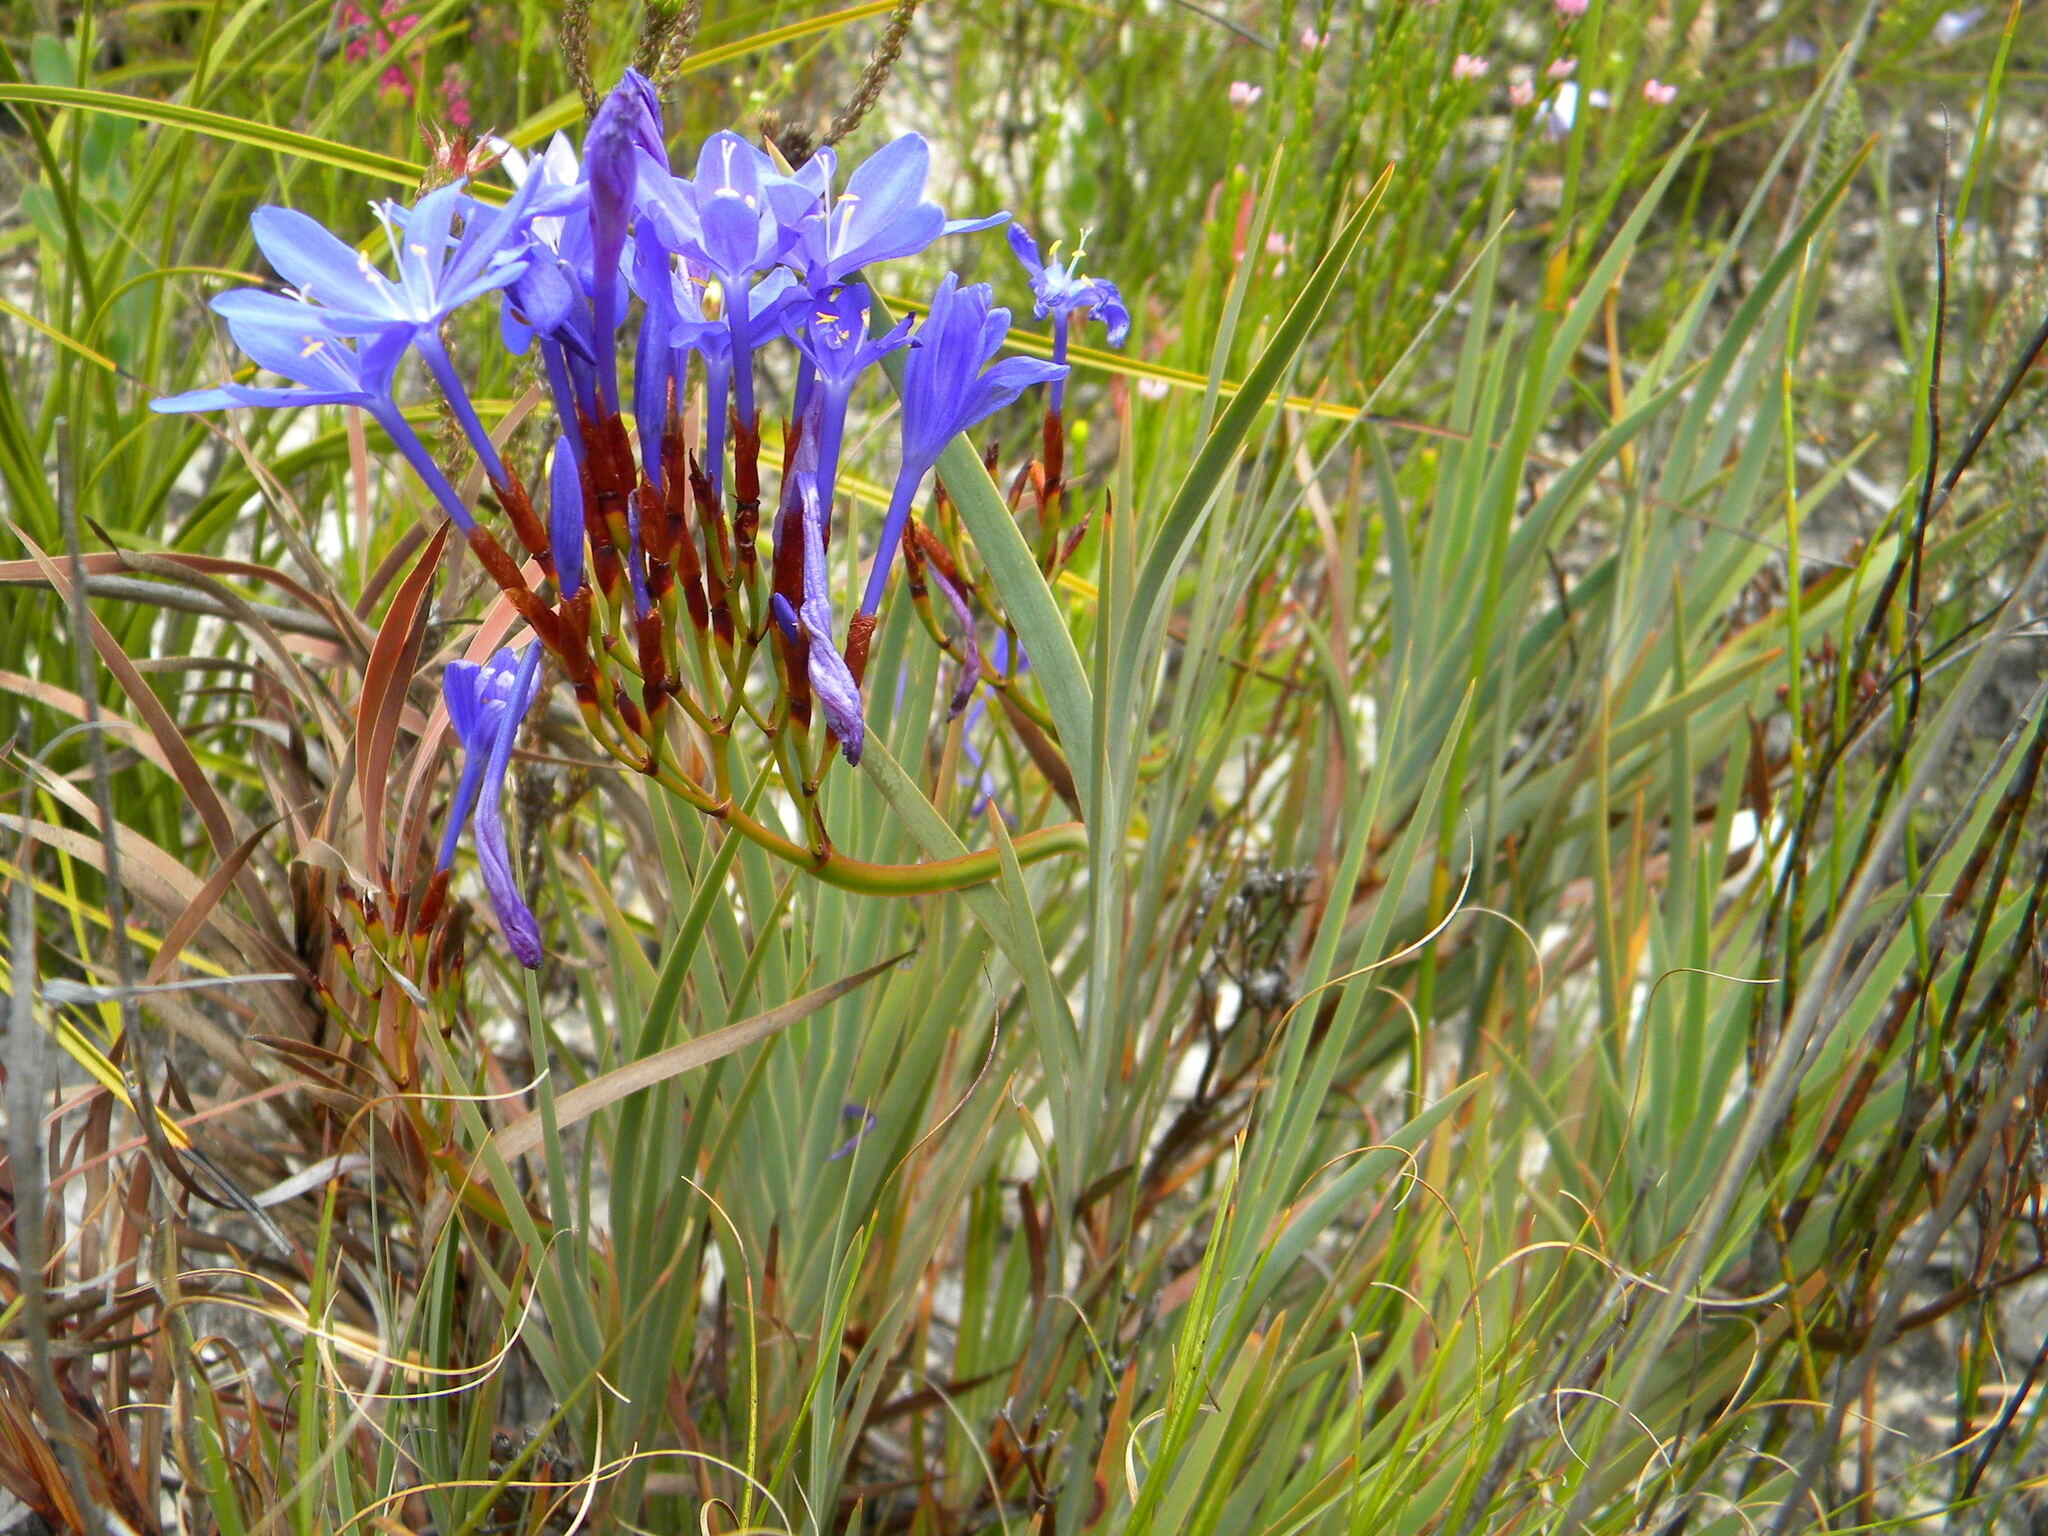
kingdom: Plantae
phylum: Tracheophyta
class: Liliopsida
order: Asparagales
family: Iridaceae
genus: Nivenia
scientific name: Nivenia stokoei
